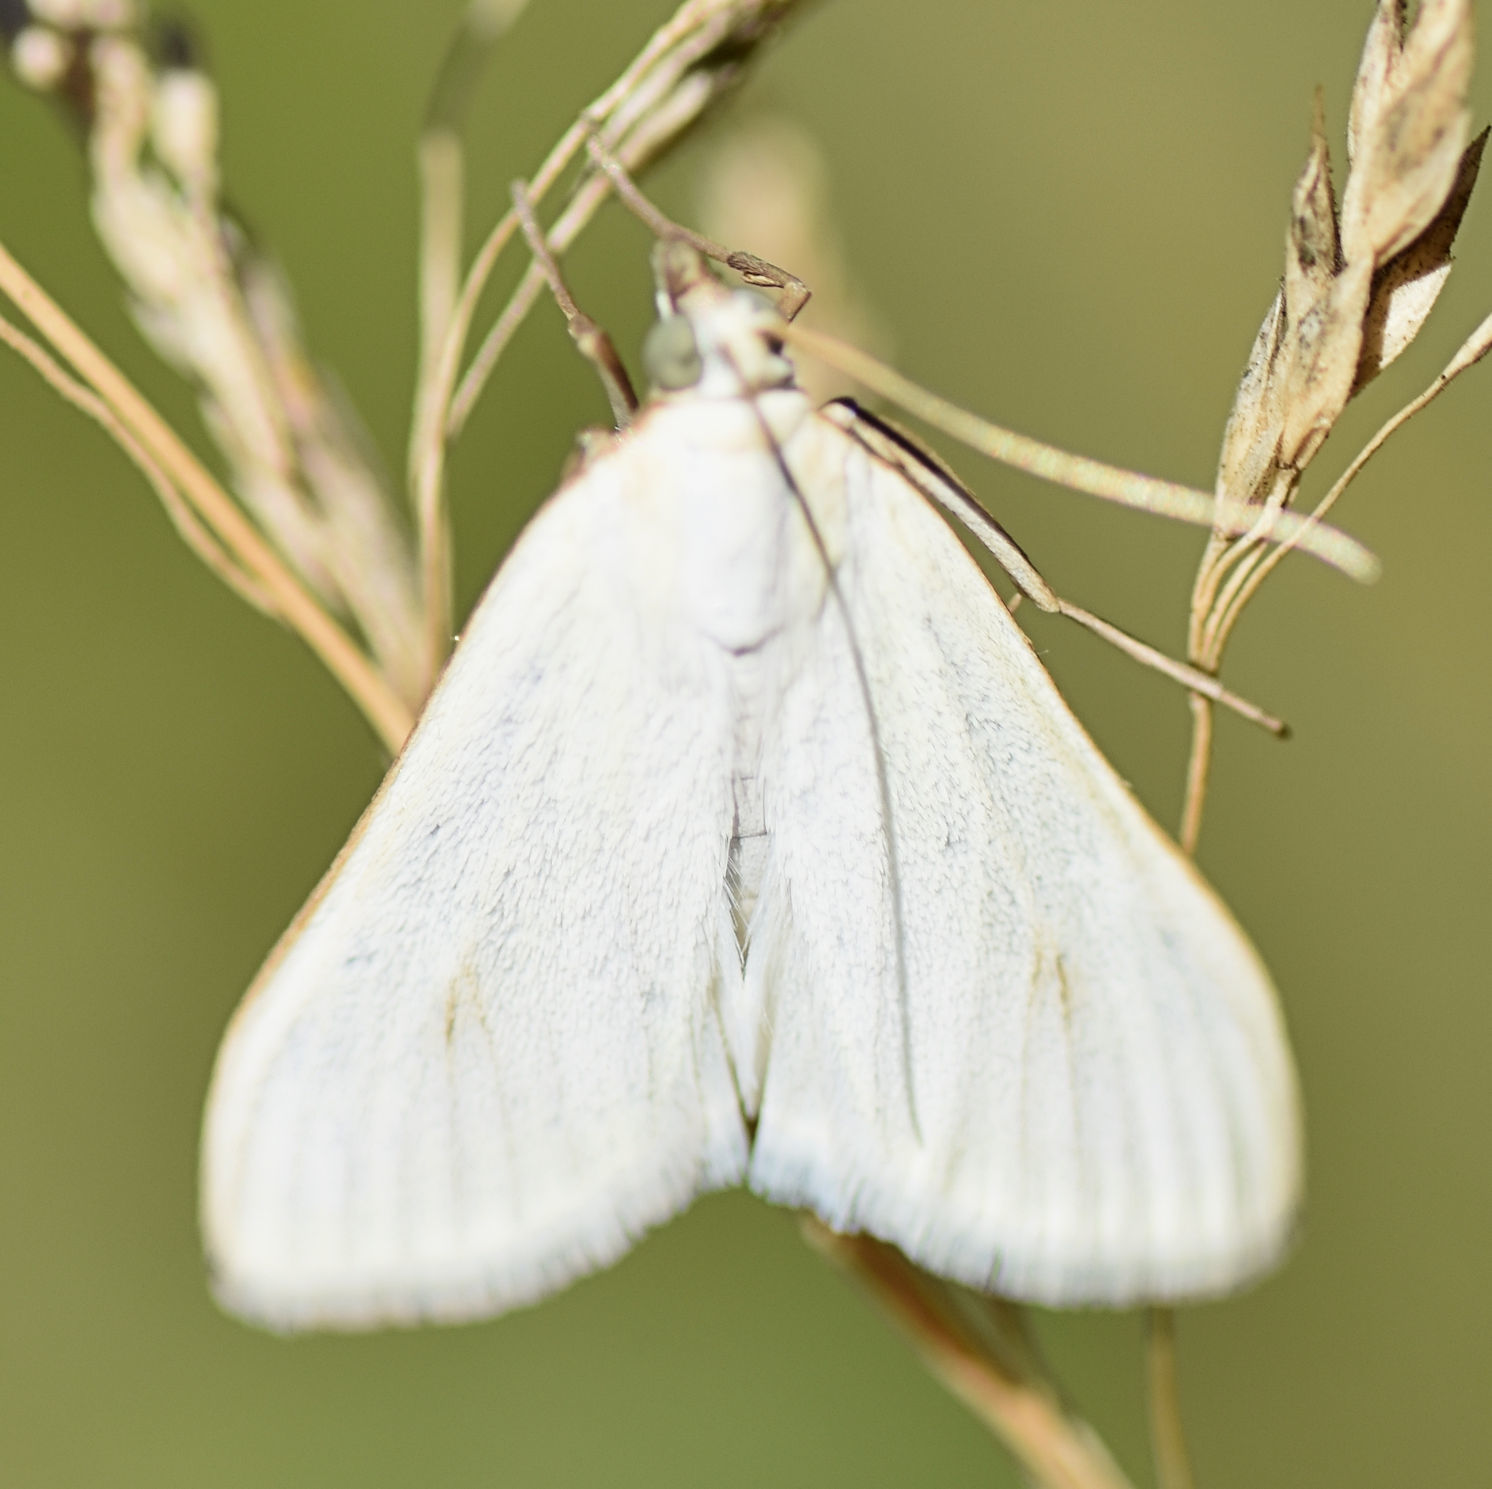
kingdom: Animalia
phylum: Arthropoda
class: Insecta
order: Lepidoptera
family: Crambidae
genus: Sitochroa
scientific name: Sitochroa palealis
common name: Greenish-yellow sitochroa moth
